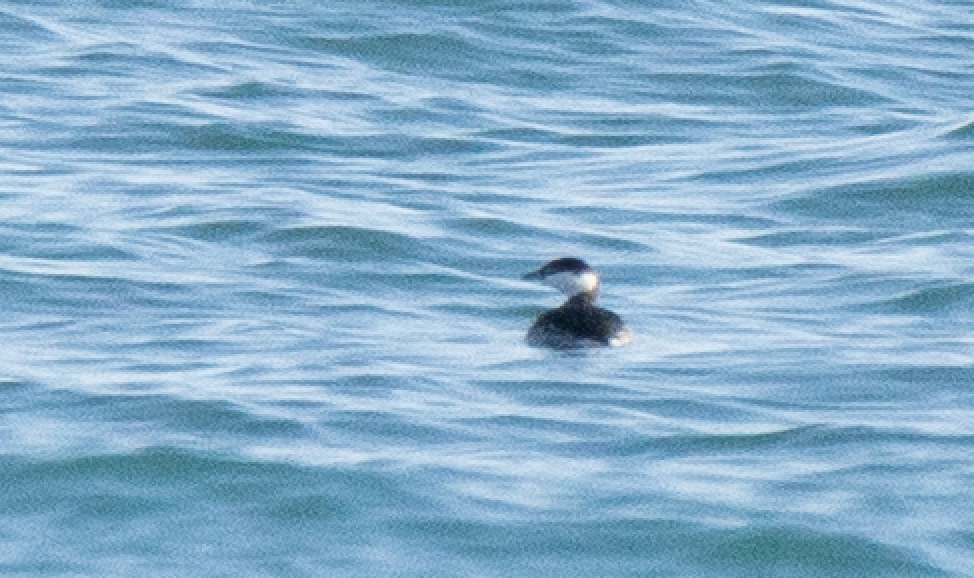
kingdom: Animalia
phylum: Chordata
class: Aves
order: Podicipediformes
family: Podicipedidae
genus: Podiceps
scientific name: Podiceps auritus
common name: Horned grebe
